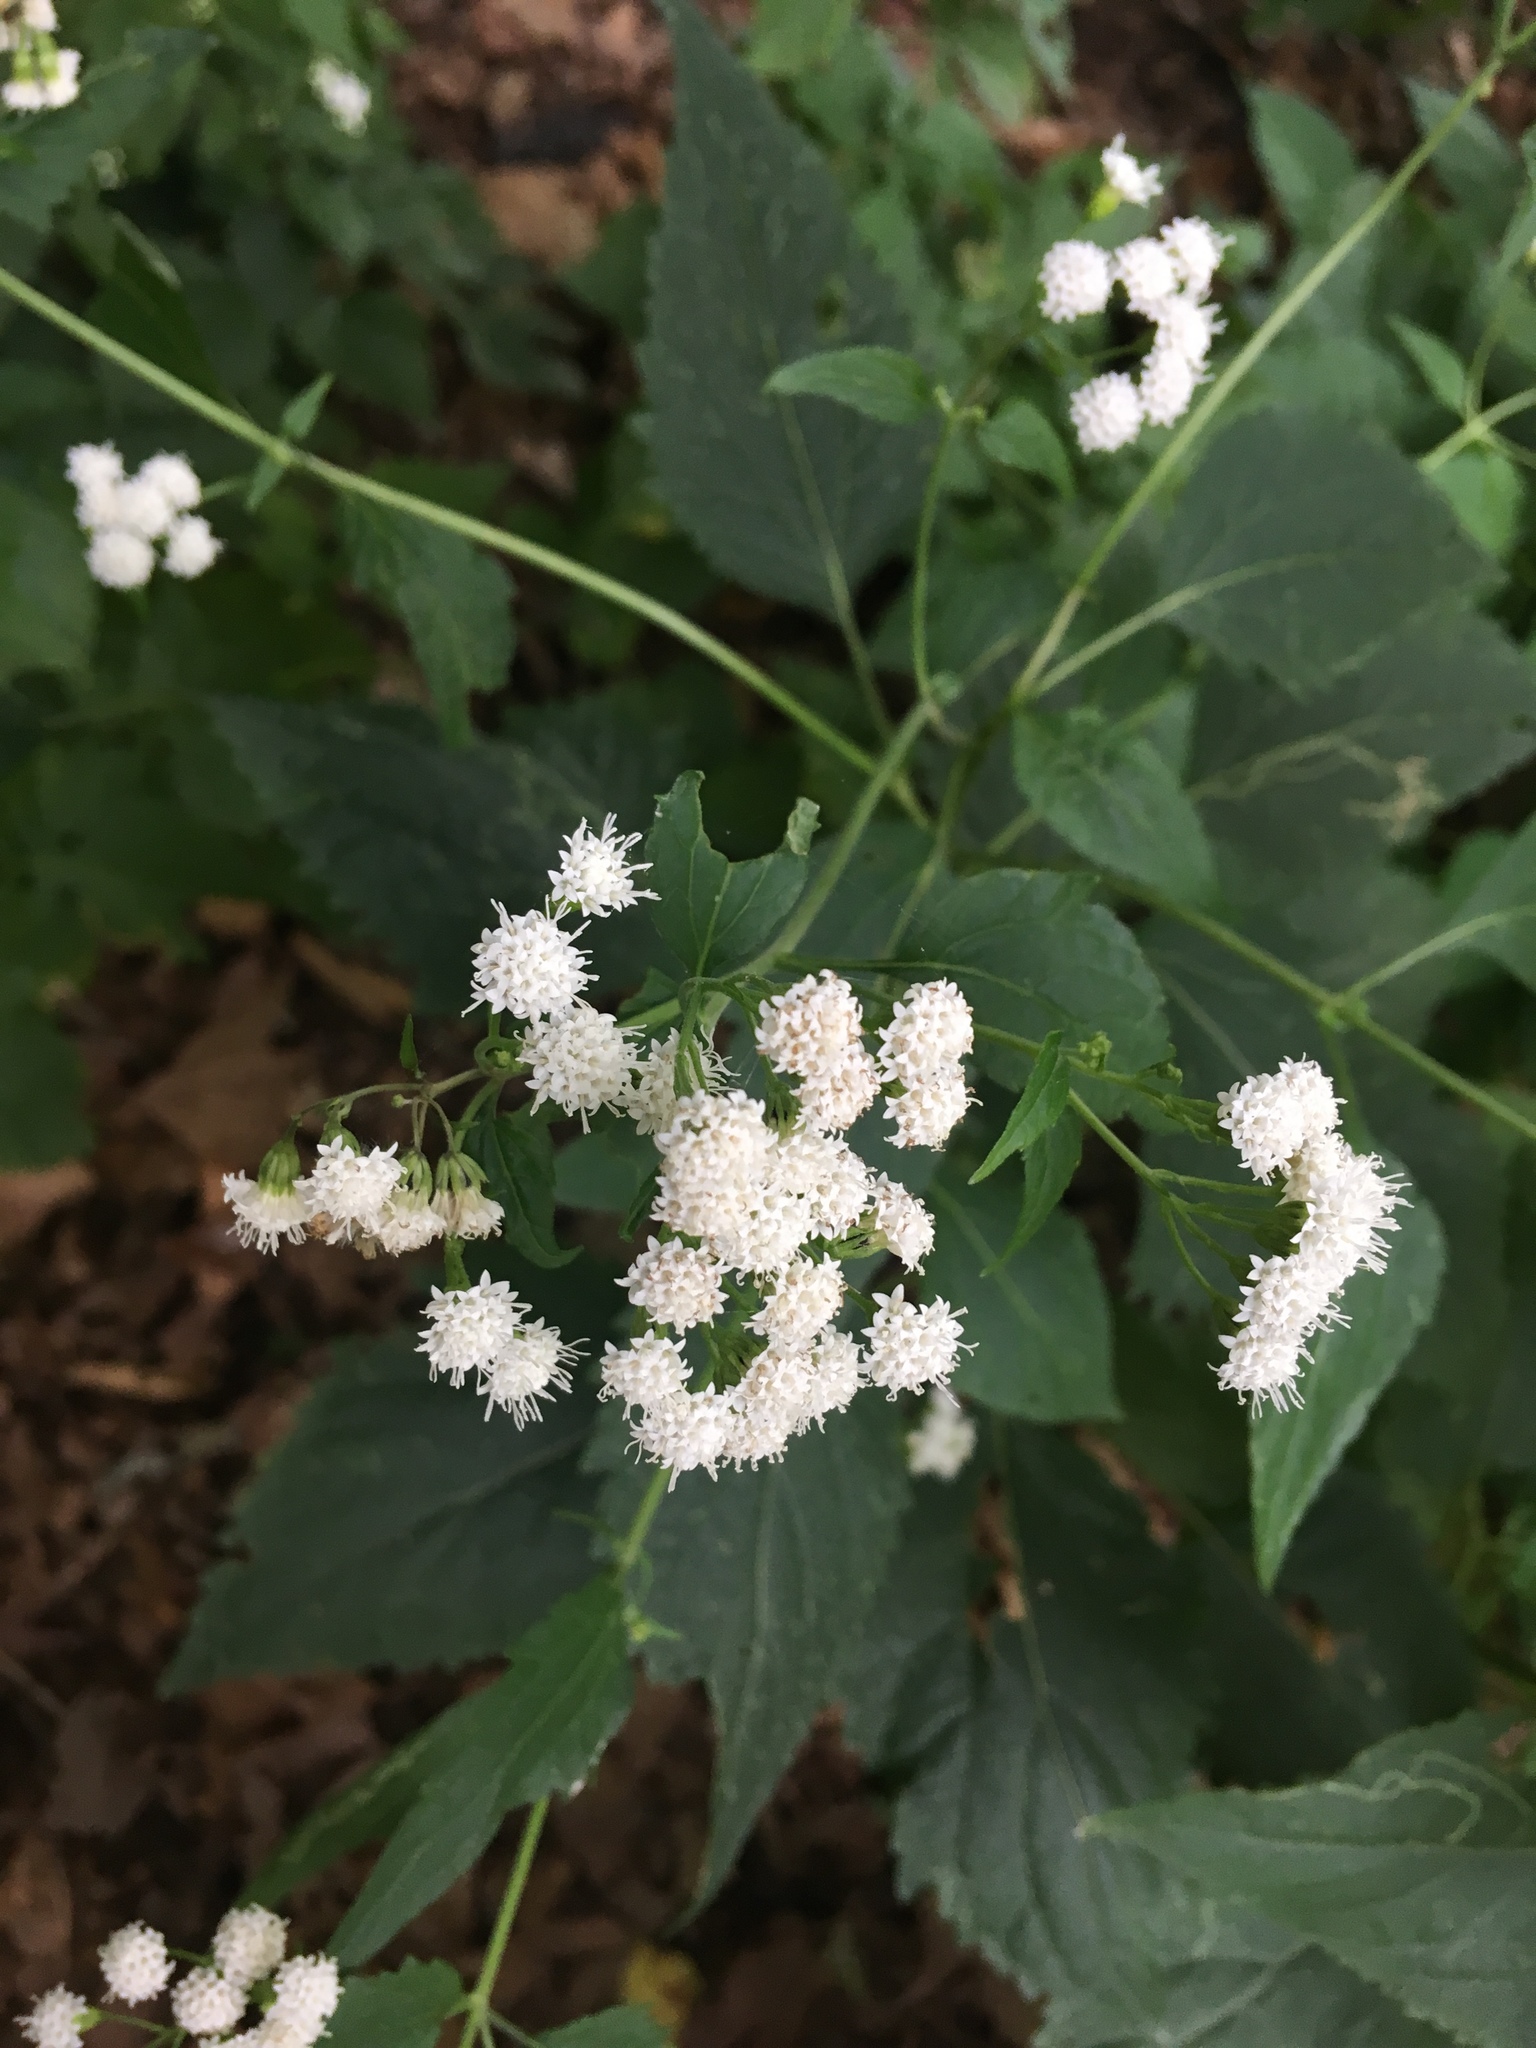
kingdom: Plantae
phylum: Tracheophyta
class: Magnoliopsida
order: Asterales
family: Asteraceae
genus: Ageratina
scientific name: Ageratina altissima
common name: White snakeroot
